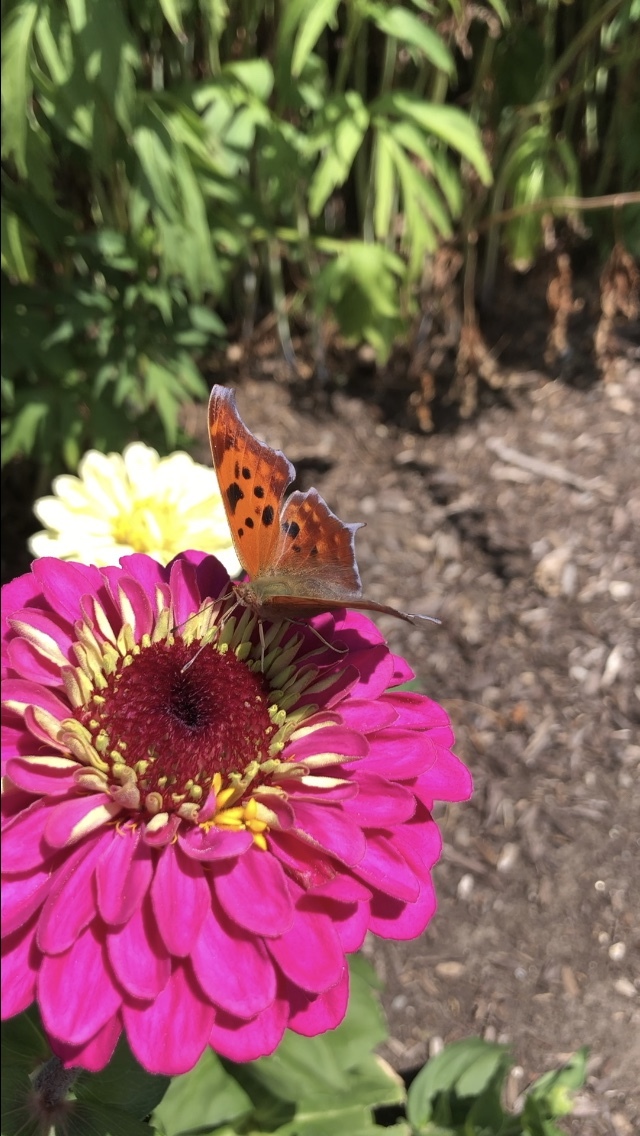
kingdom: Animalia
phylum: Arthropoda
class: Insecta
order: Lepidoptera
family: Nymphalidae
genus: Polygonia
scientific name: Polygonia interrogationis
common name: Question mark
